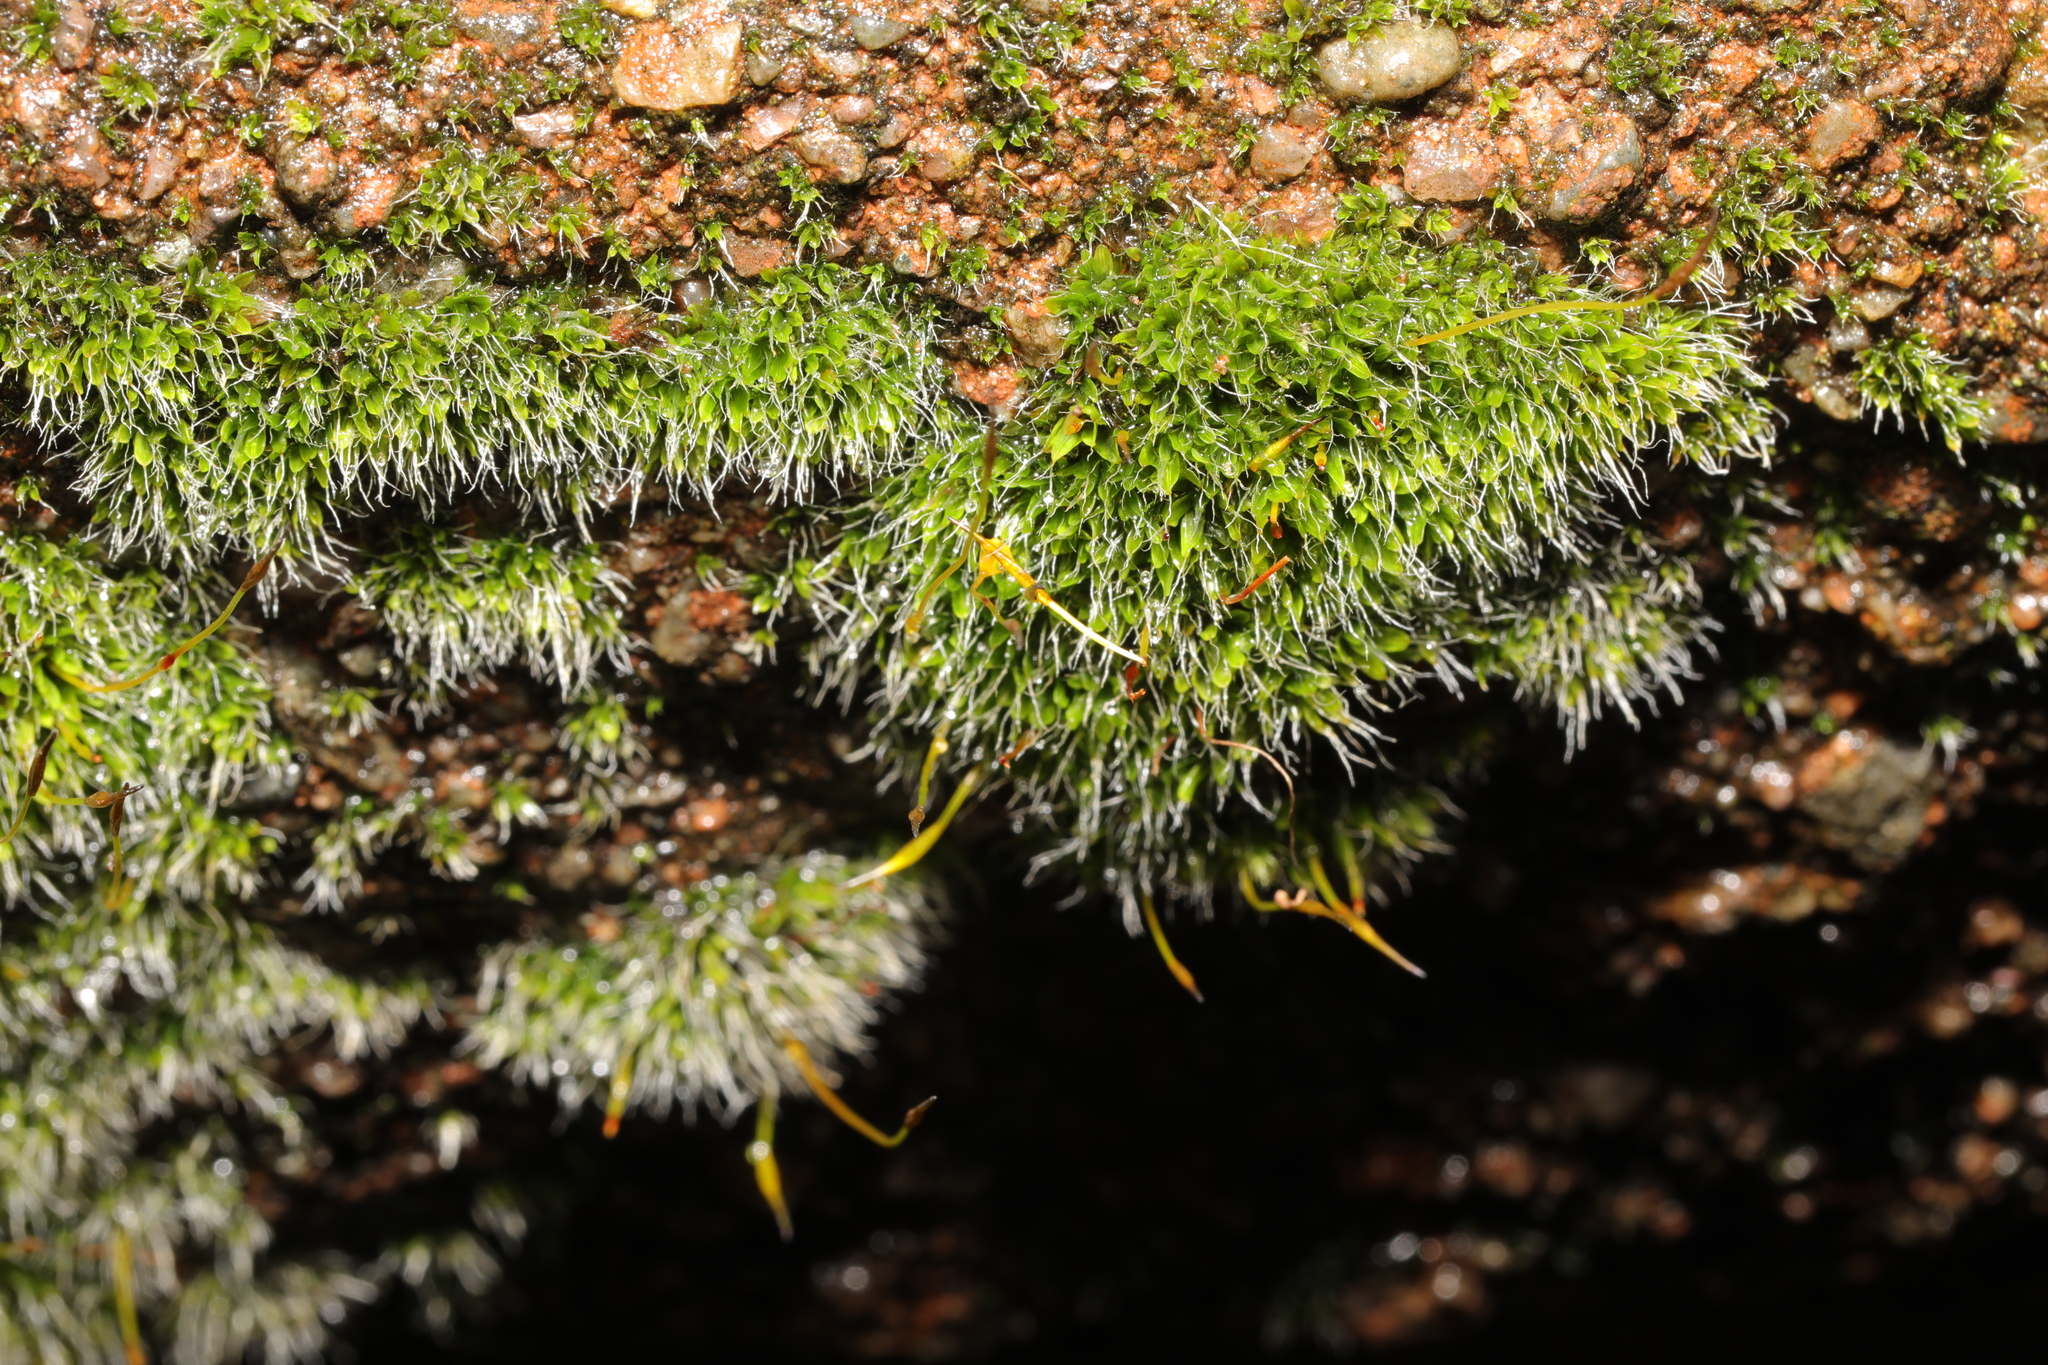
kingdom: Plantae
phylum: Bryophyta
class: Bryopsida
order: Pottiales
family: Pottiaceae
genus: Tortula
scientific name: Tortula muralis
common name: Wall screw-moss
